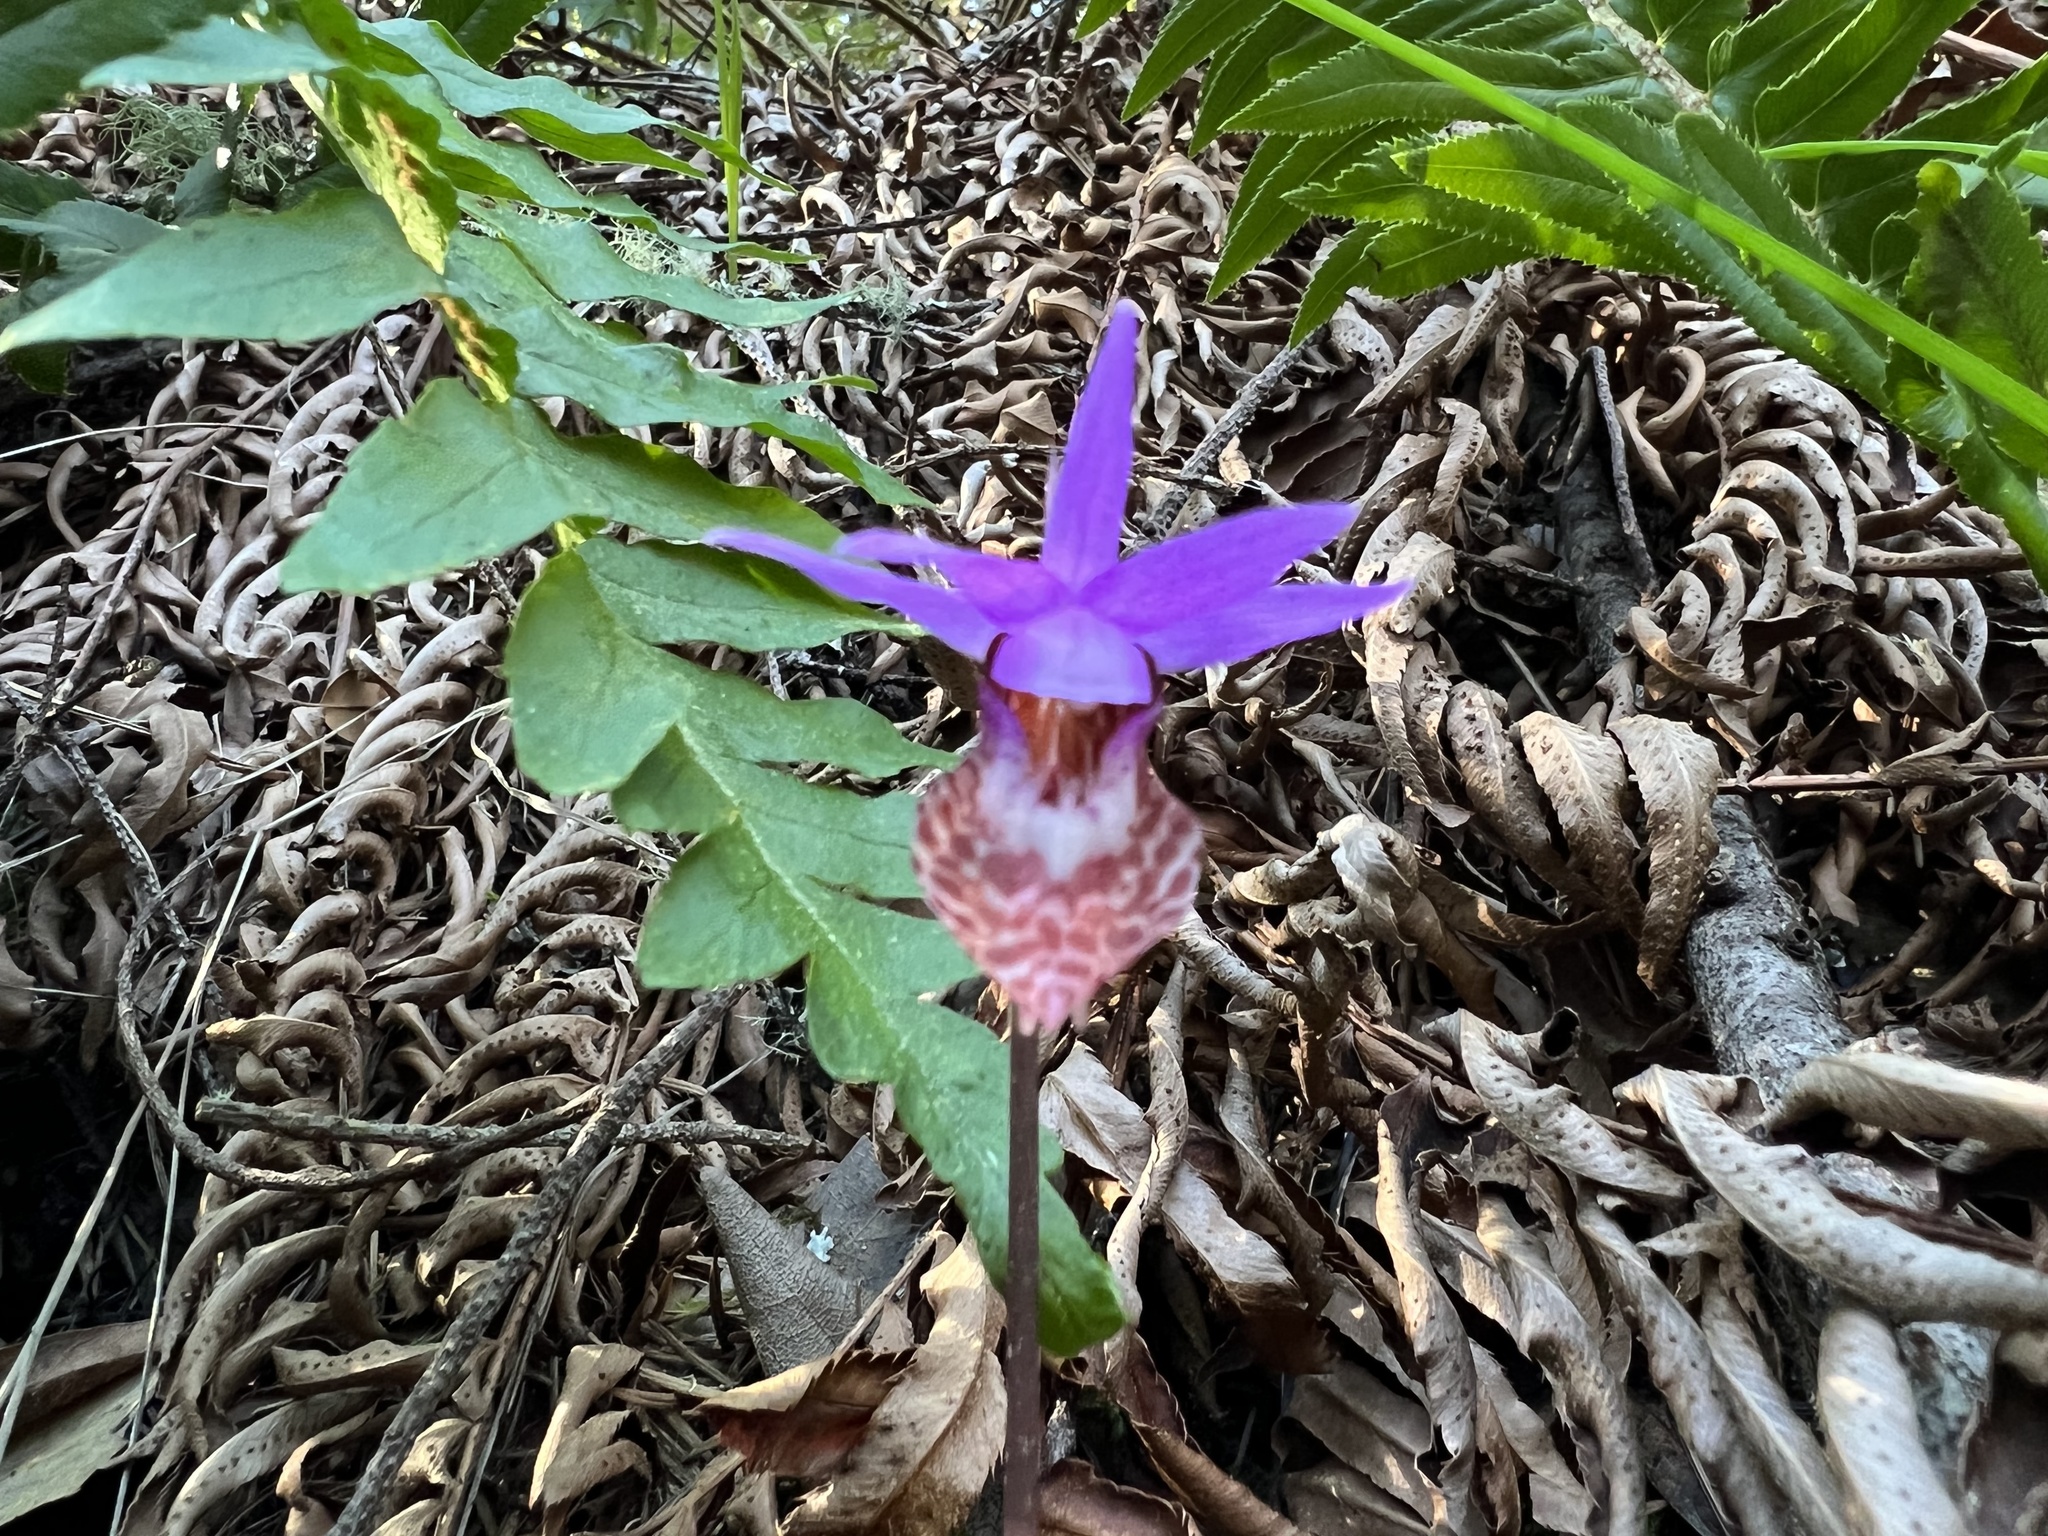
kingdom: Plantae
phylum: Tracheophyta
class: Liliopsida
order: Asparagales
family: Orchidaceae
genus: Calypso
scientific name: Calypso bulbosa
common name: Calypso
